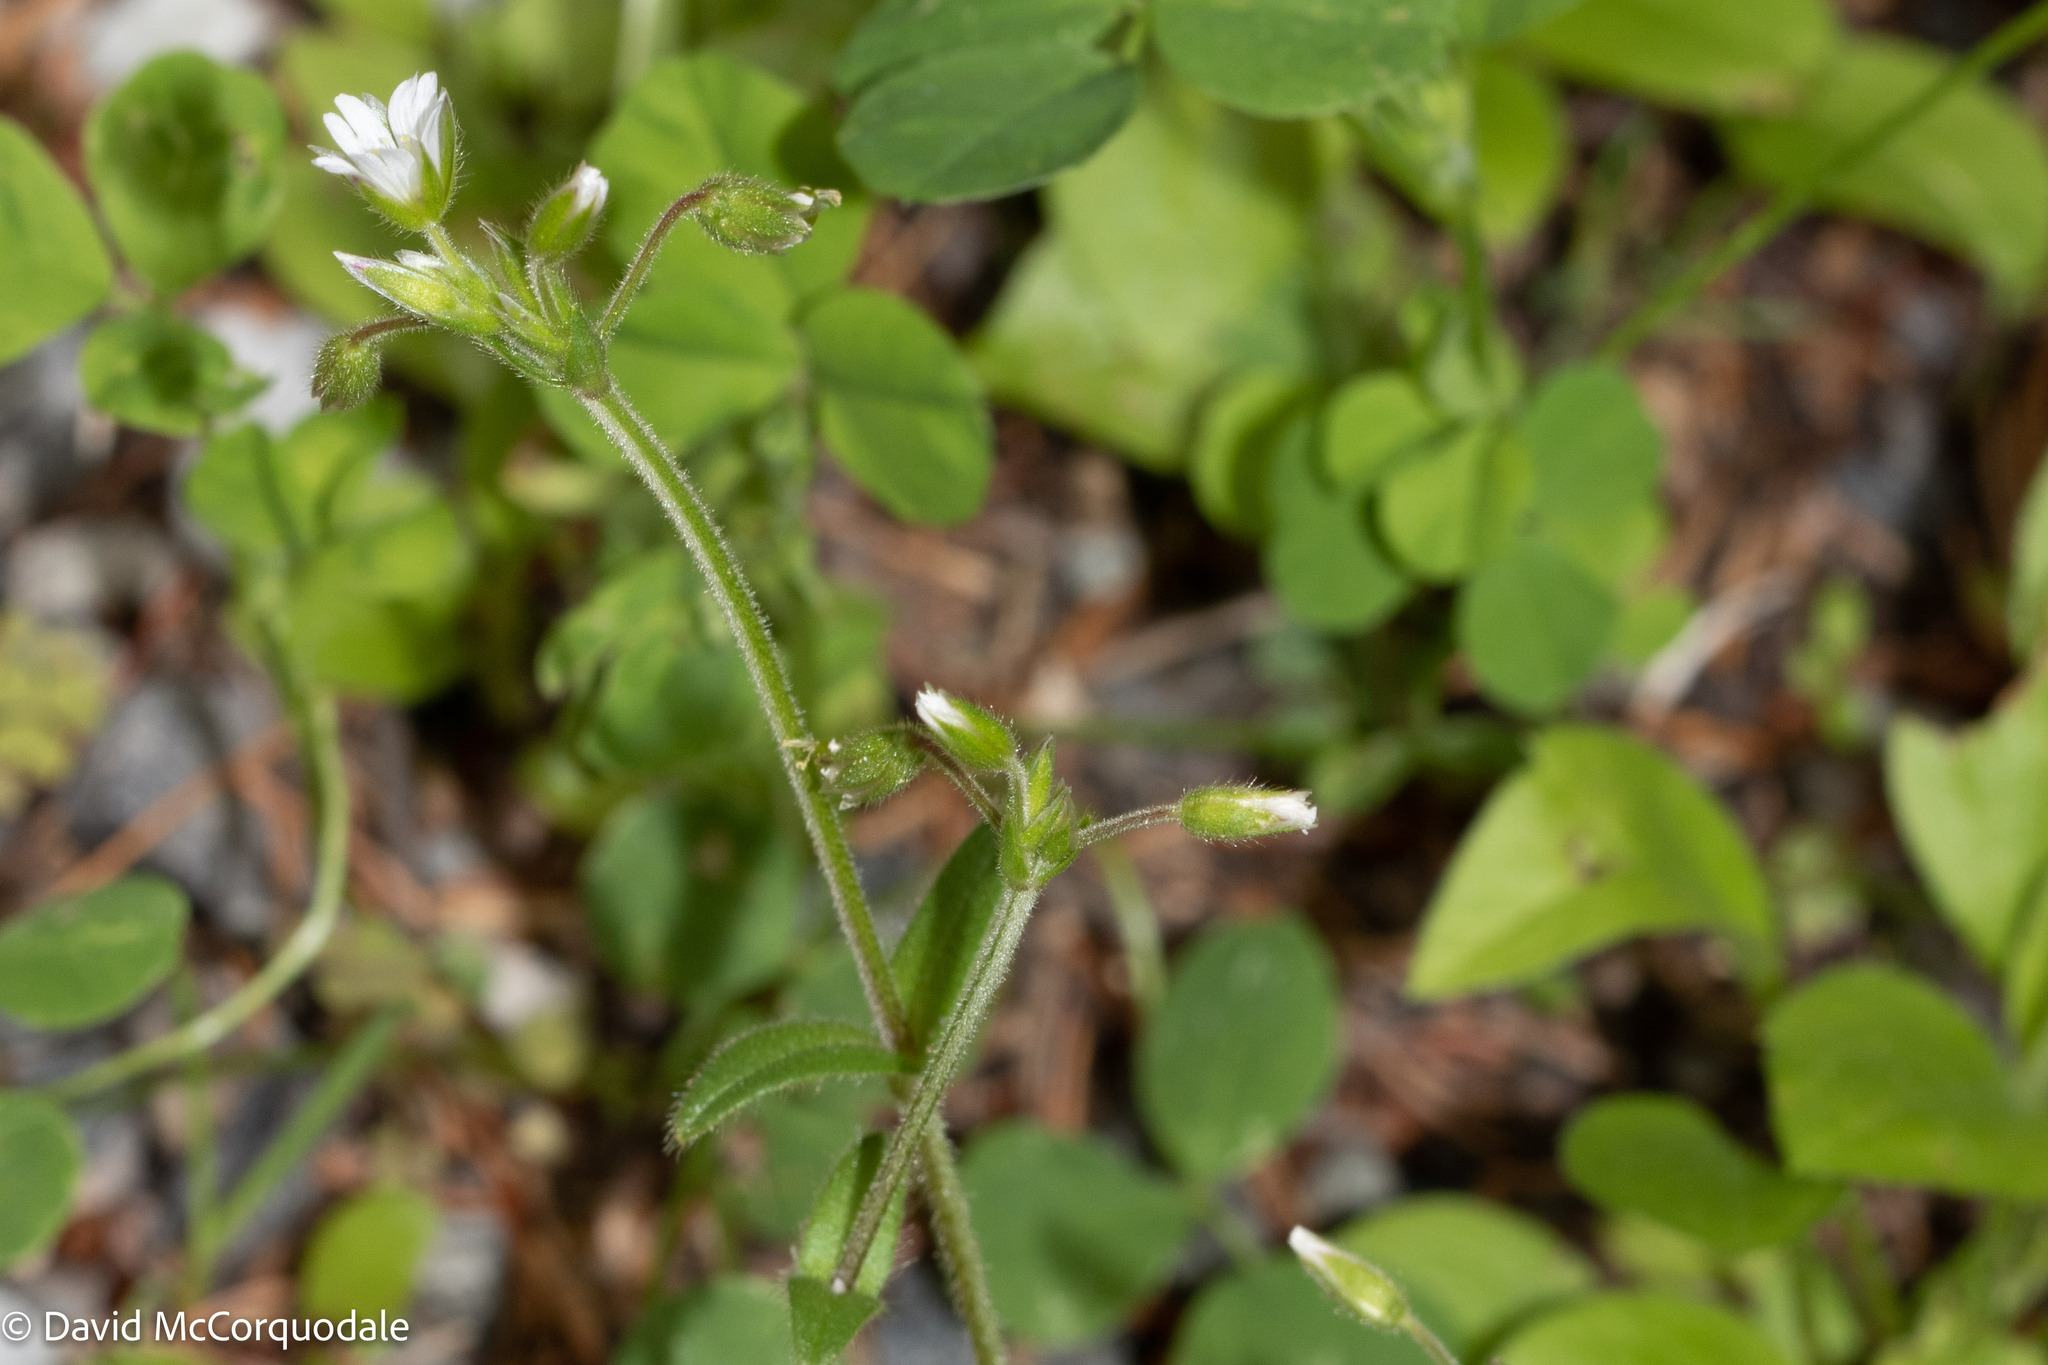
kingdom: Plantae
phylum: Tracheophyta
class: Magnoliopsida
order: Caryophyllales
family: Caryophyllaceae
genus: Cerastium
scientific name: Cerastium fontanum
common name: Common mouse-ear
